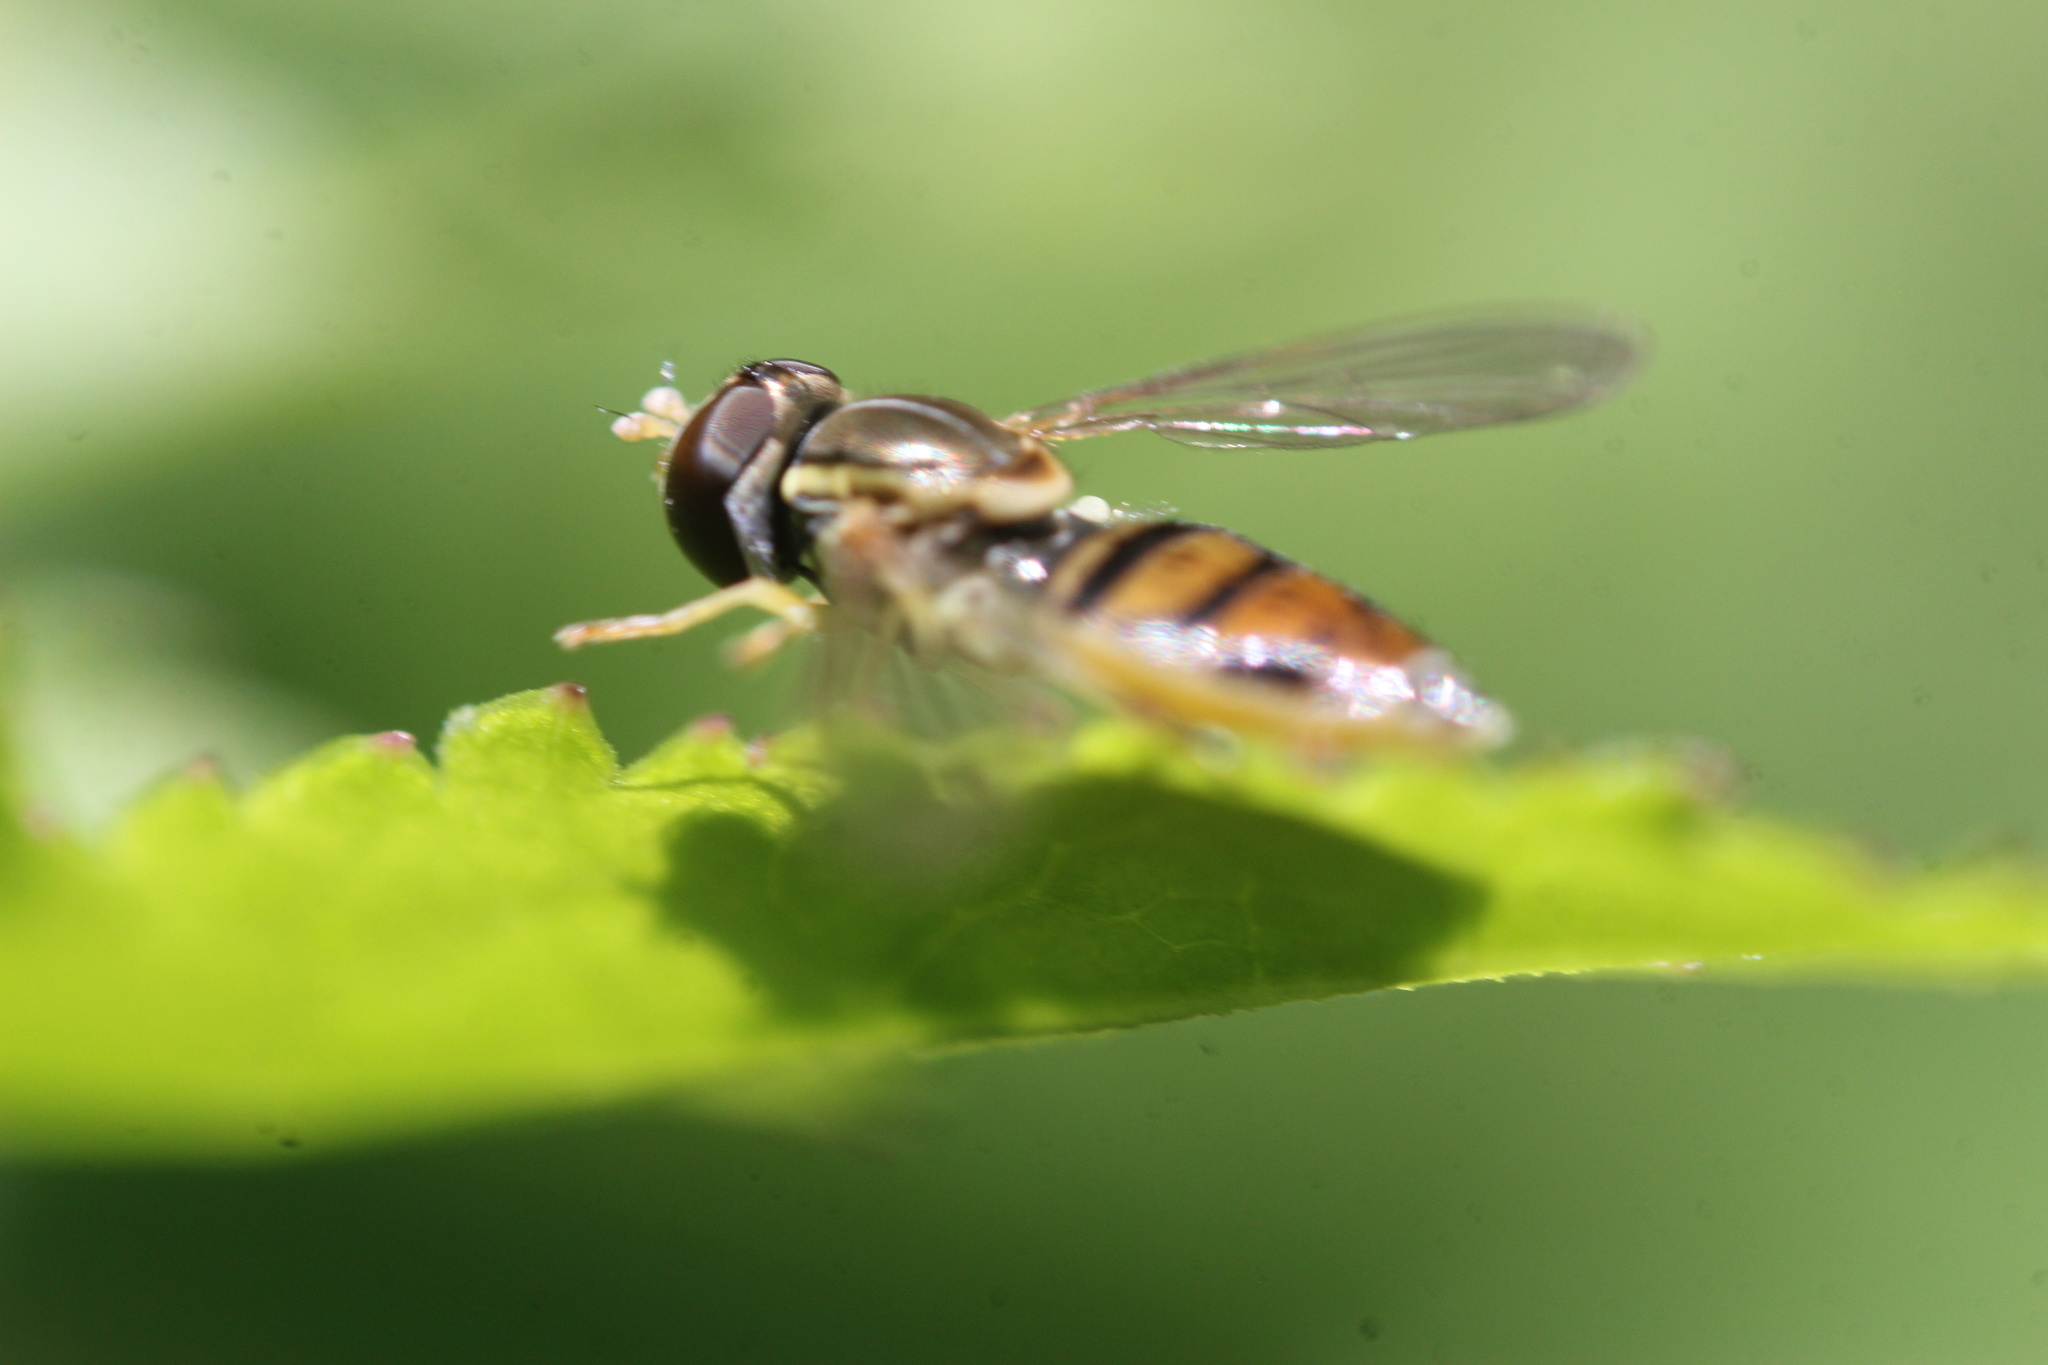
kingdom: Animalia
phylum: Arthropoda
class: Insecta
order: Diptera
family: Syrphidae
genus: Toxomerus
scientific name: Toxomerus marginatus
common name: Syrphid fly
